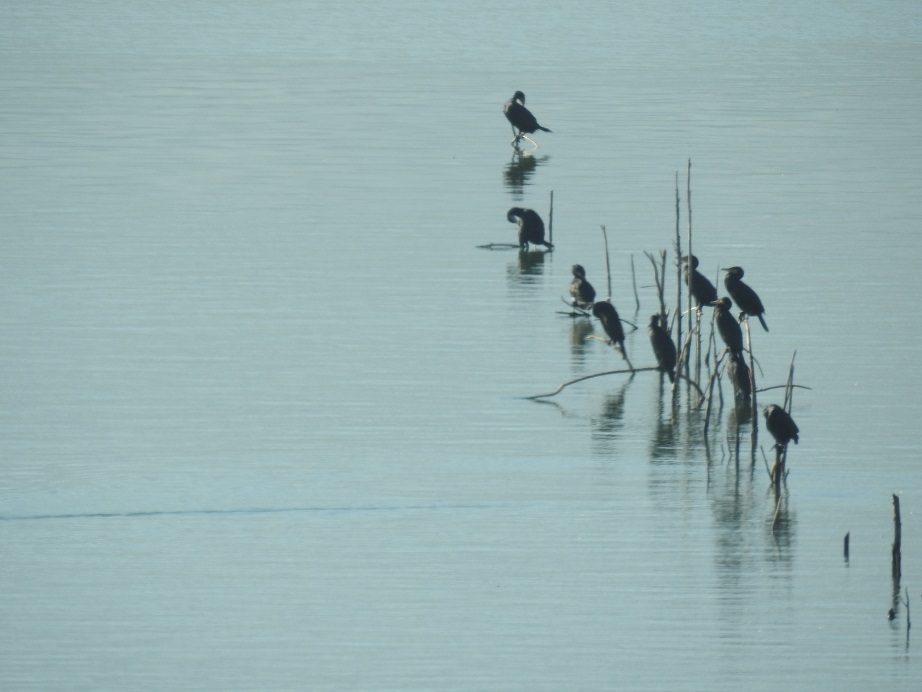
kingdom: Animalia
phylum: Chordata
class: Aves
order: Suliformes
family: Phalacrocoracidae
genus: Phalacrocorax
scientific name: Phalacrocorax carbo
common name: Great cormorant
